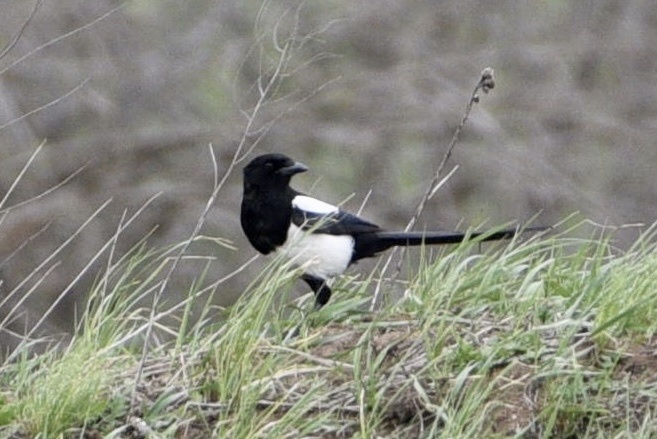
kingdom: Animalia
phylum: Chordata
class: Aves
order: Passeriformes
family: Corvidae
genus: Pica
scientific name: Pica pica
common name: Eurasian magpie
